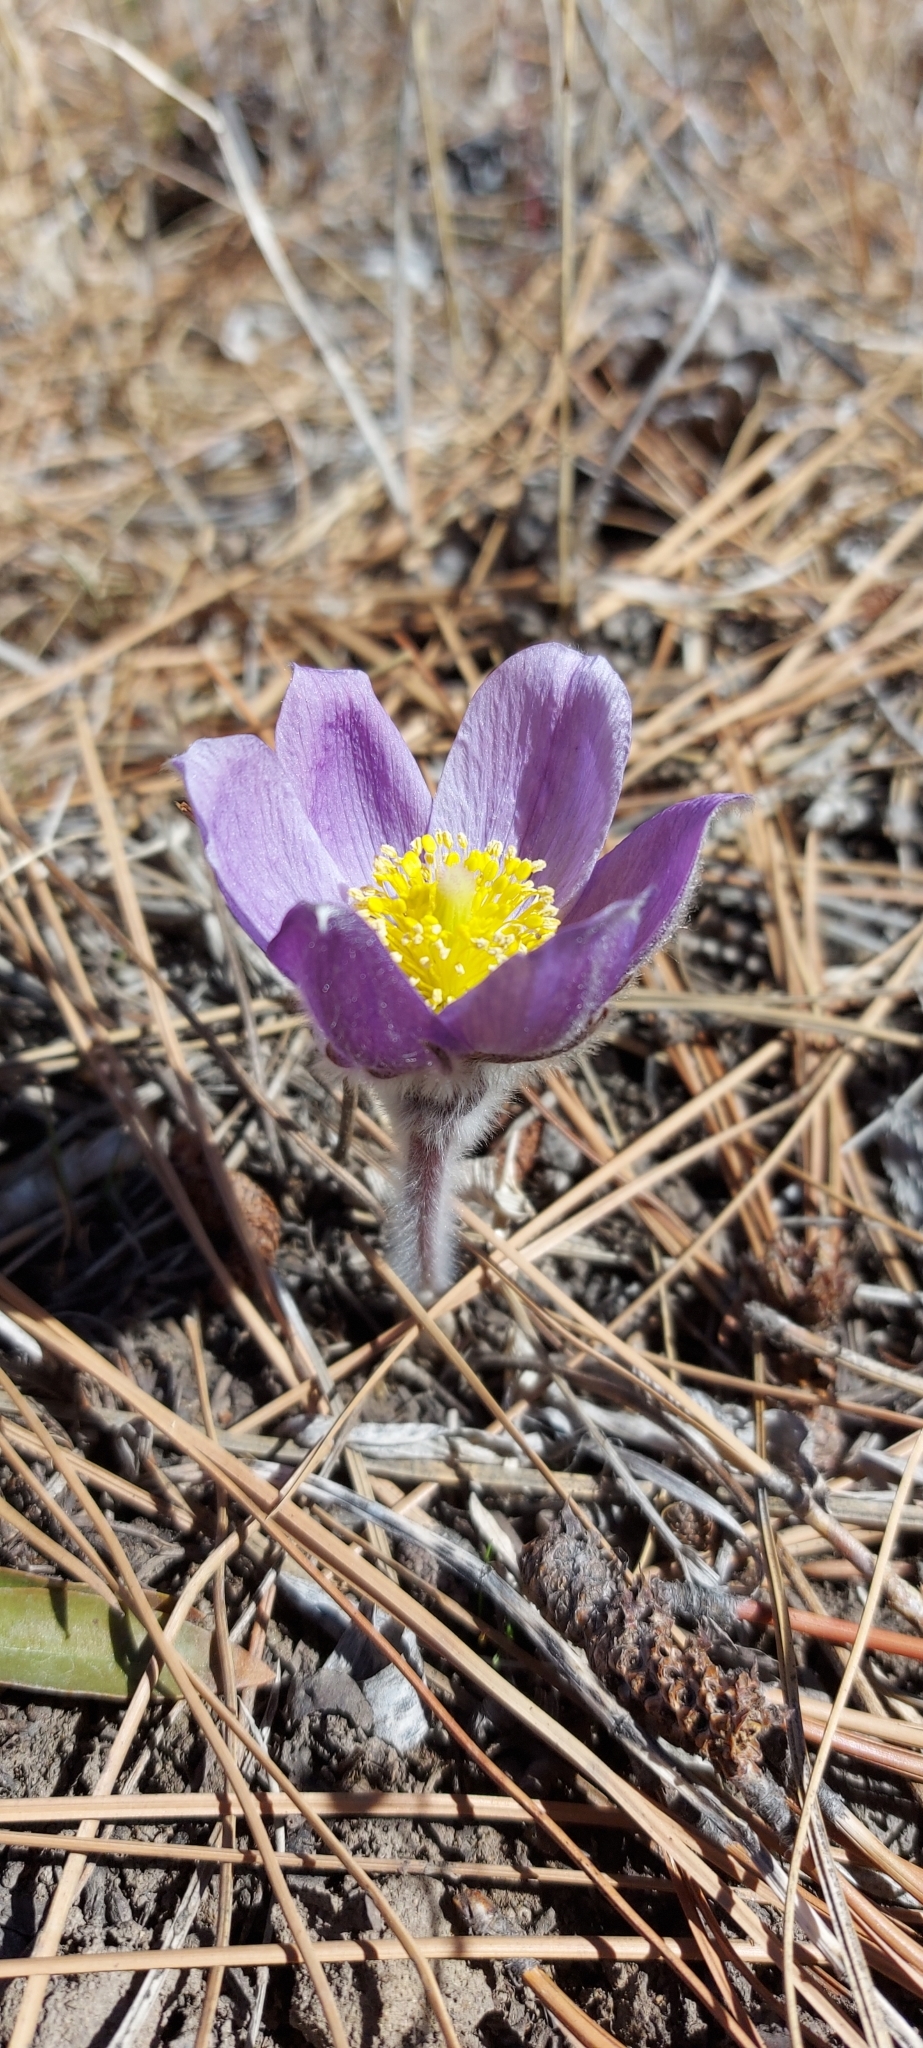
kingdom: Plantae
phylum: Tracheophyta
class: Magnoliopsida
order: Ranunculales
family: Ranunculaceae
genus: Pulsatilla
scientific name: Pulsatilla nuttalliana
